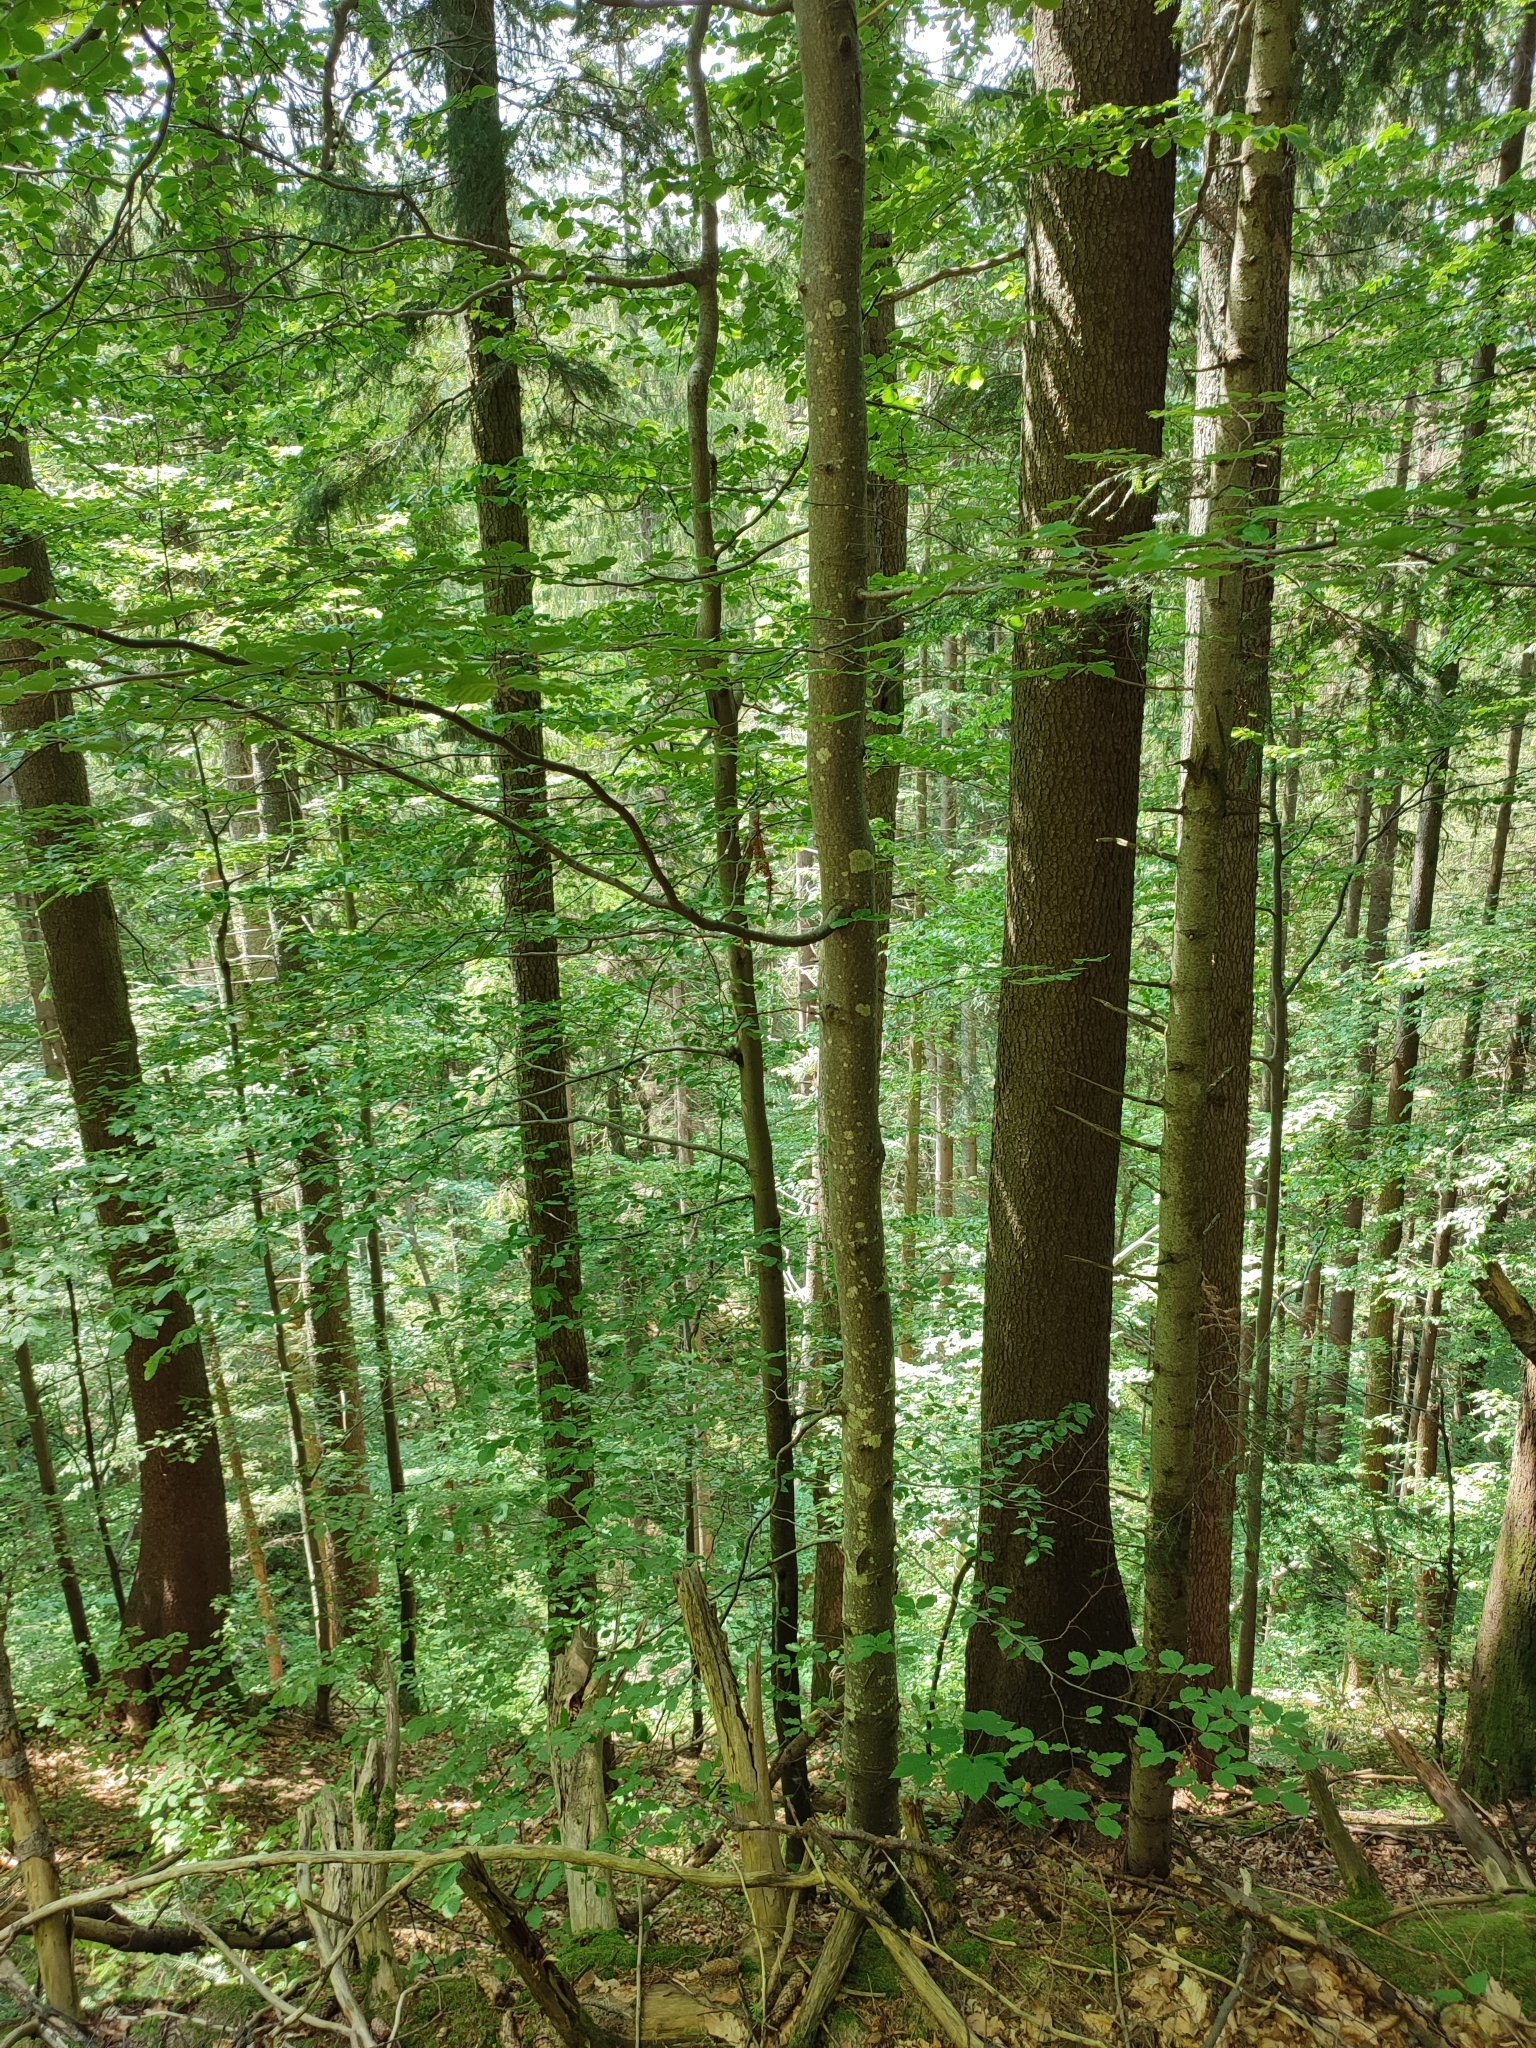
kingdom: Plantae
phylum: Tracheophyta
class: Magnoliopsida
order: Fagales
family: Fagaceae
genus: Fagus
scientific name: Fagus sylvatica
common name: Beech
